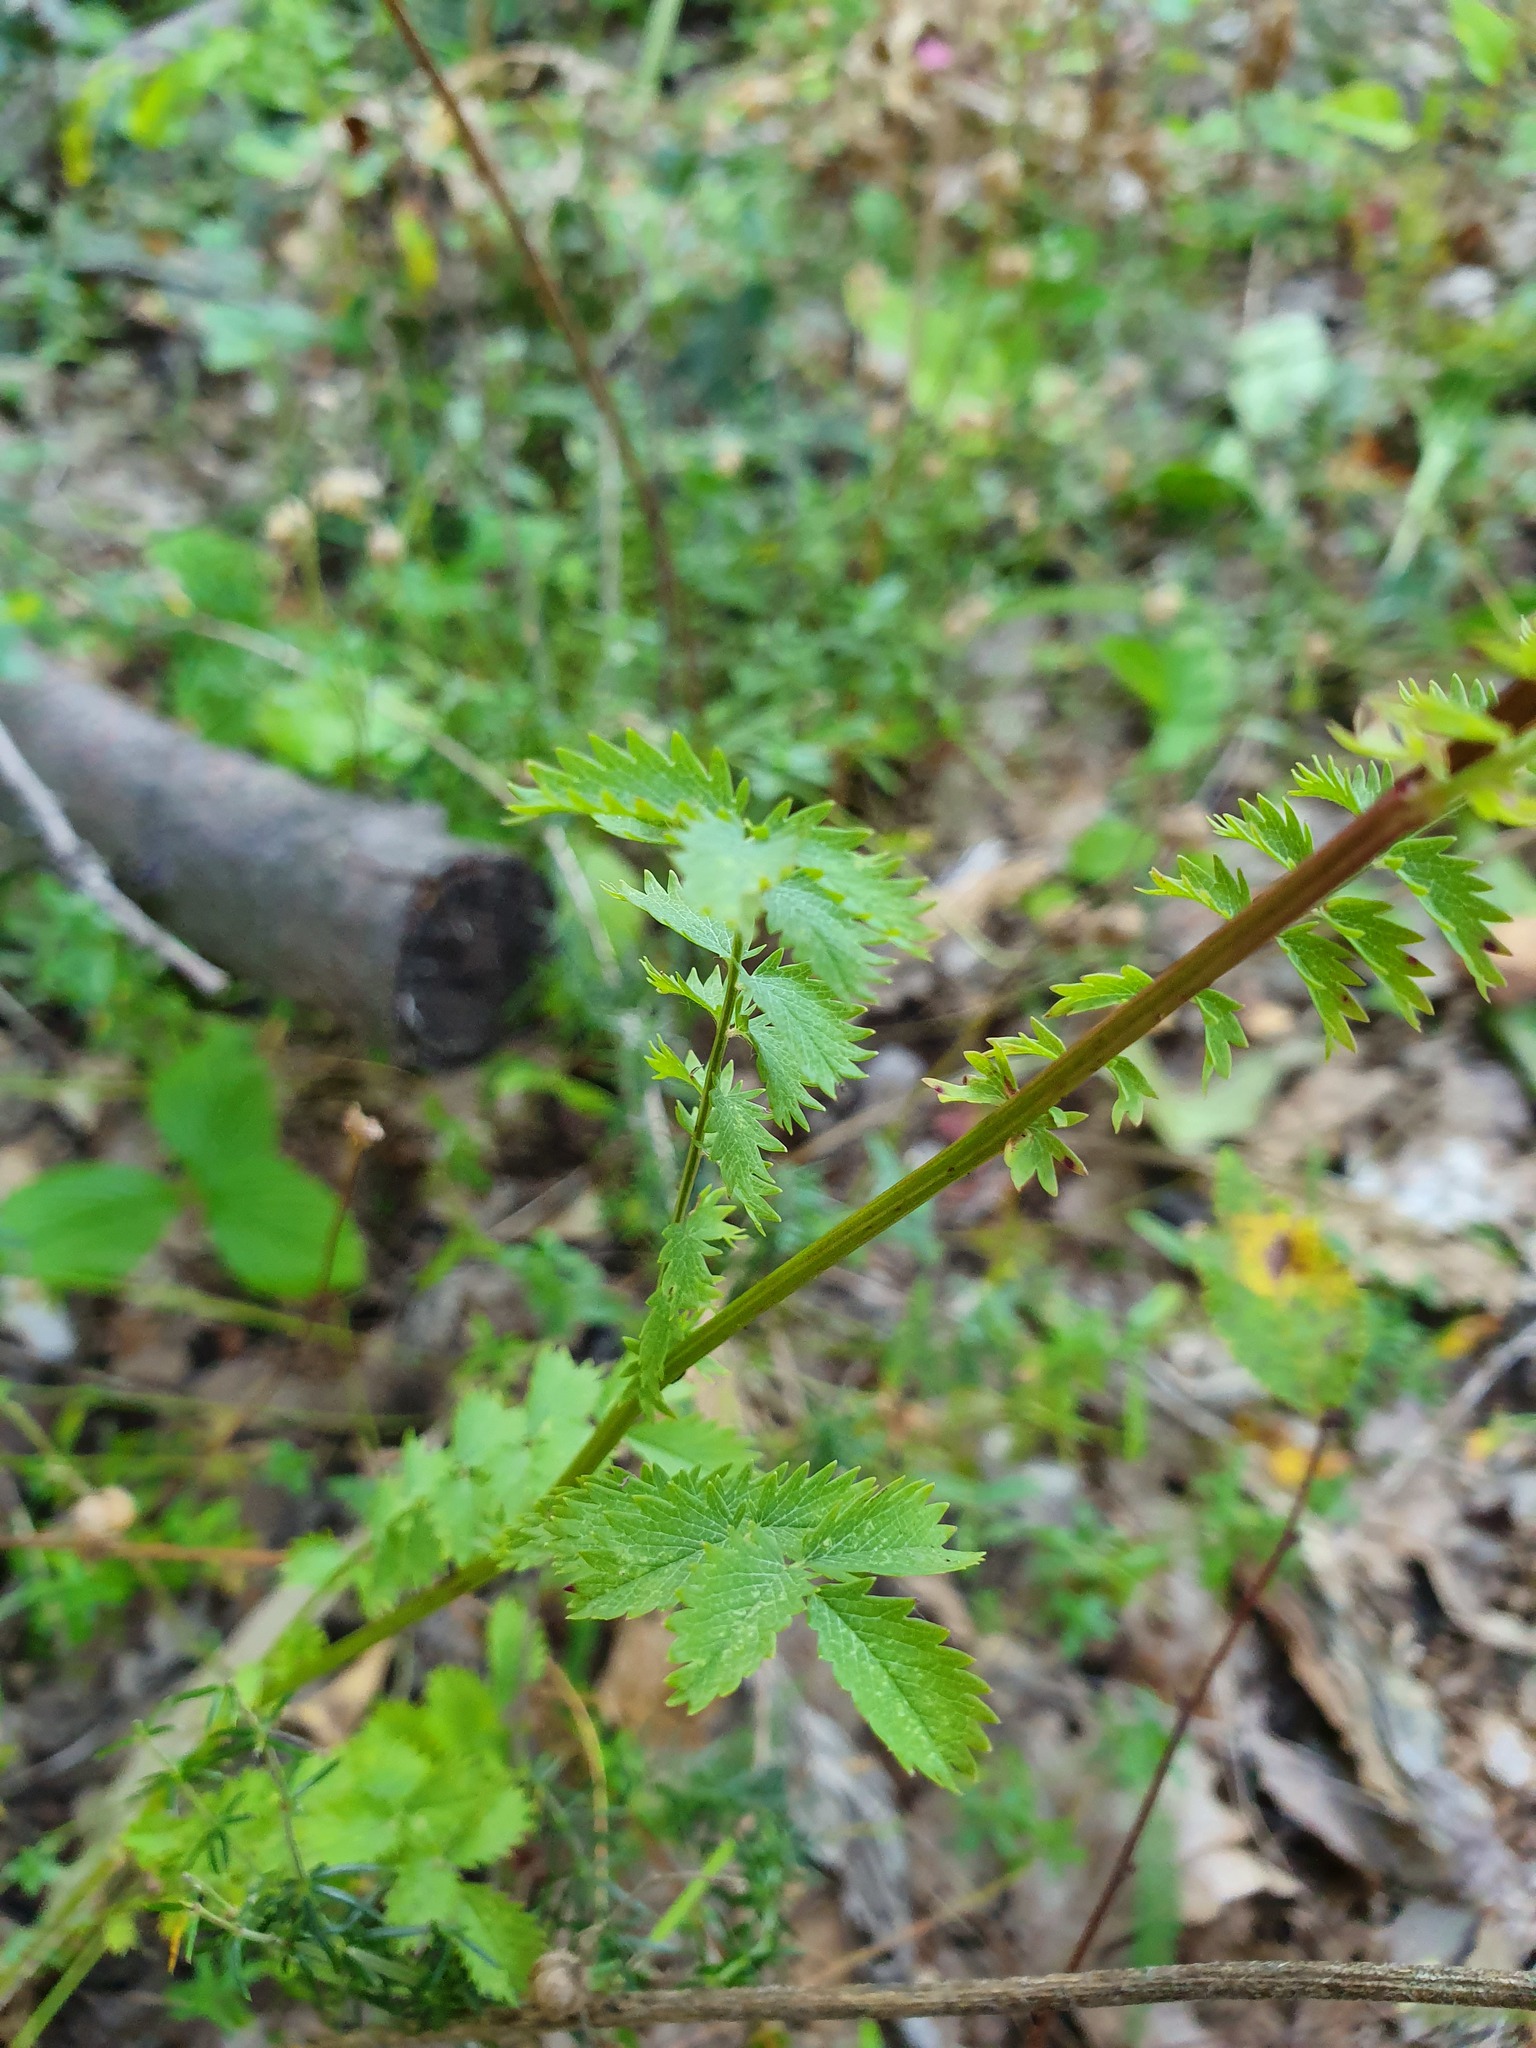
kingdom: Plantae
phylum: Tracheophyta
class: Magnoliopsida
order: Rosales
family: Rosaceae
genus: Poterium
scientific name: Poterium sanguisorba
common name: Salad burnet
